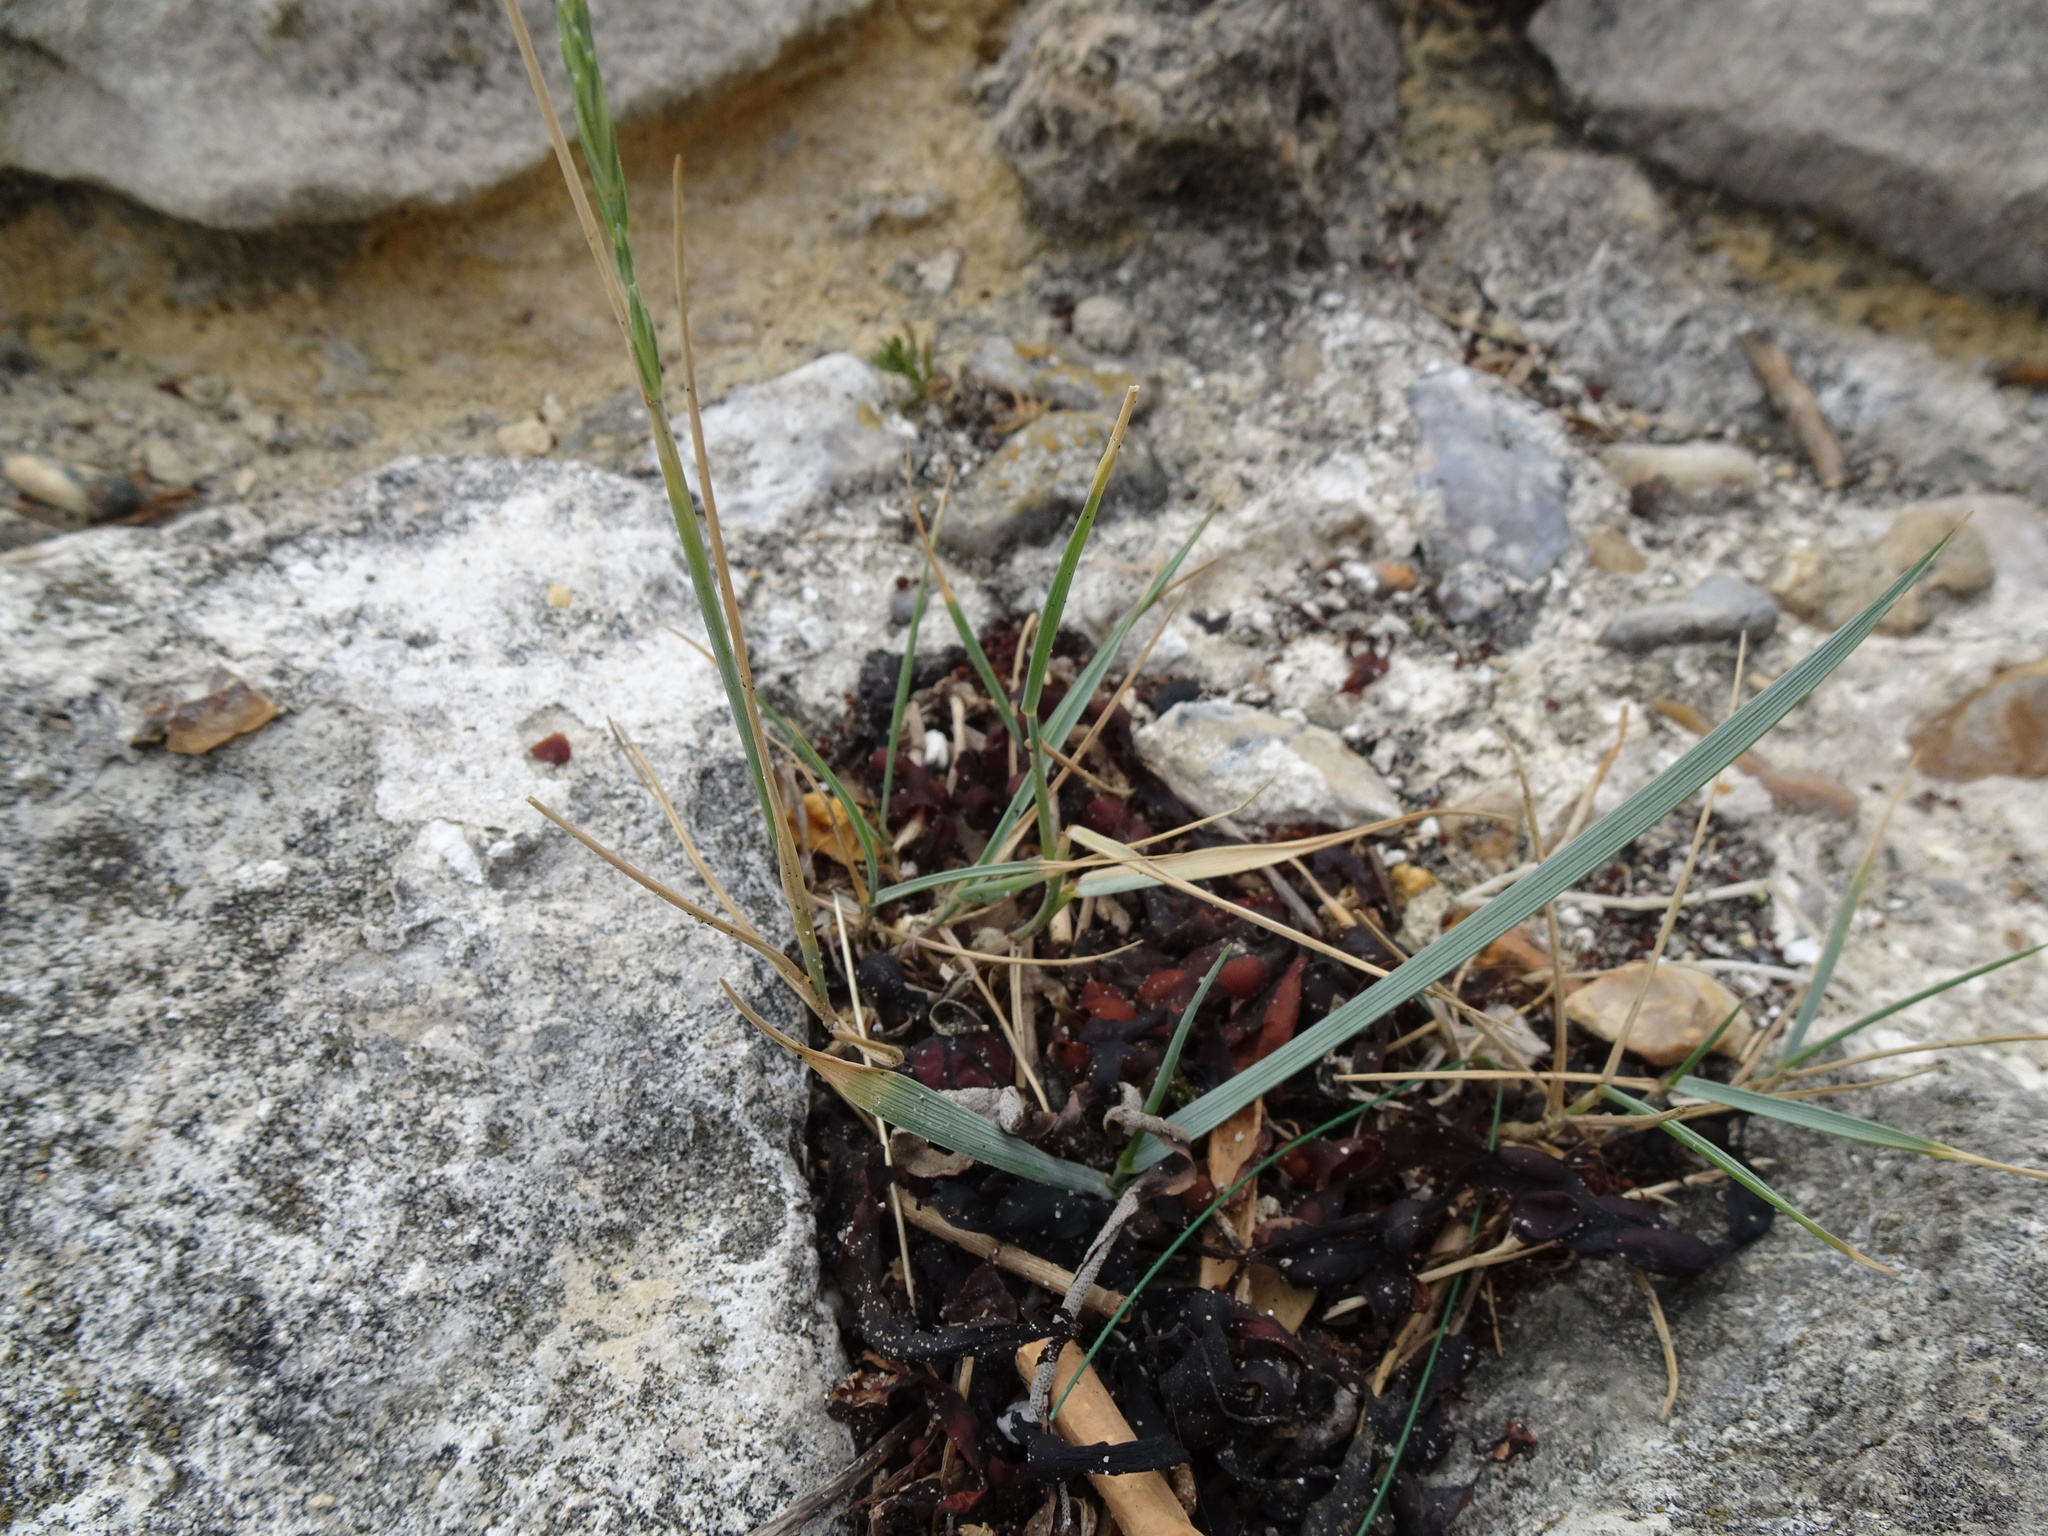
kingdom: Plantae
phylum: Tracheophyta
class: Liliopsida
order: Poales
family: Poaceae
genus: Elymus
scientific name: Elymus athericus
